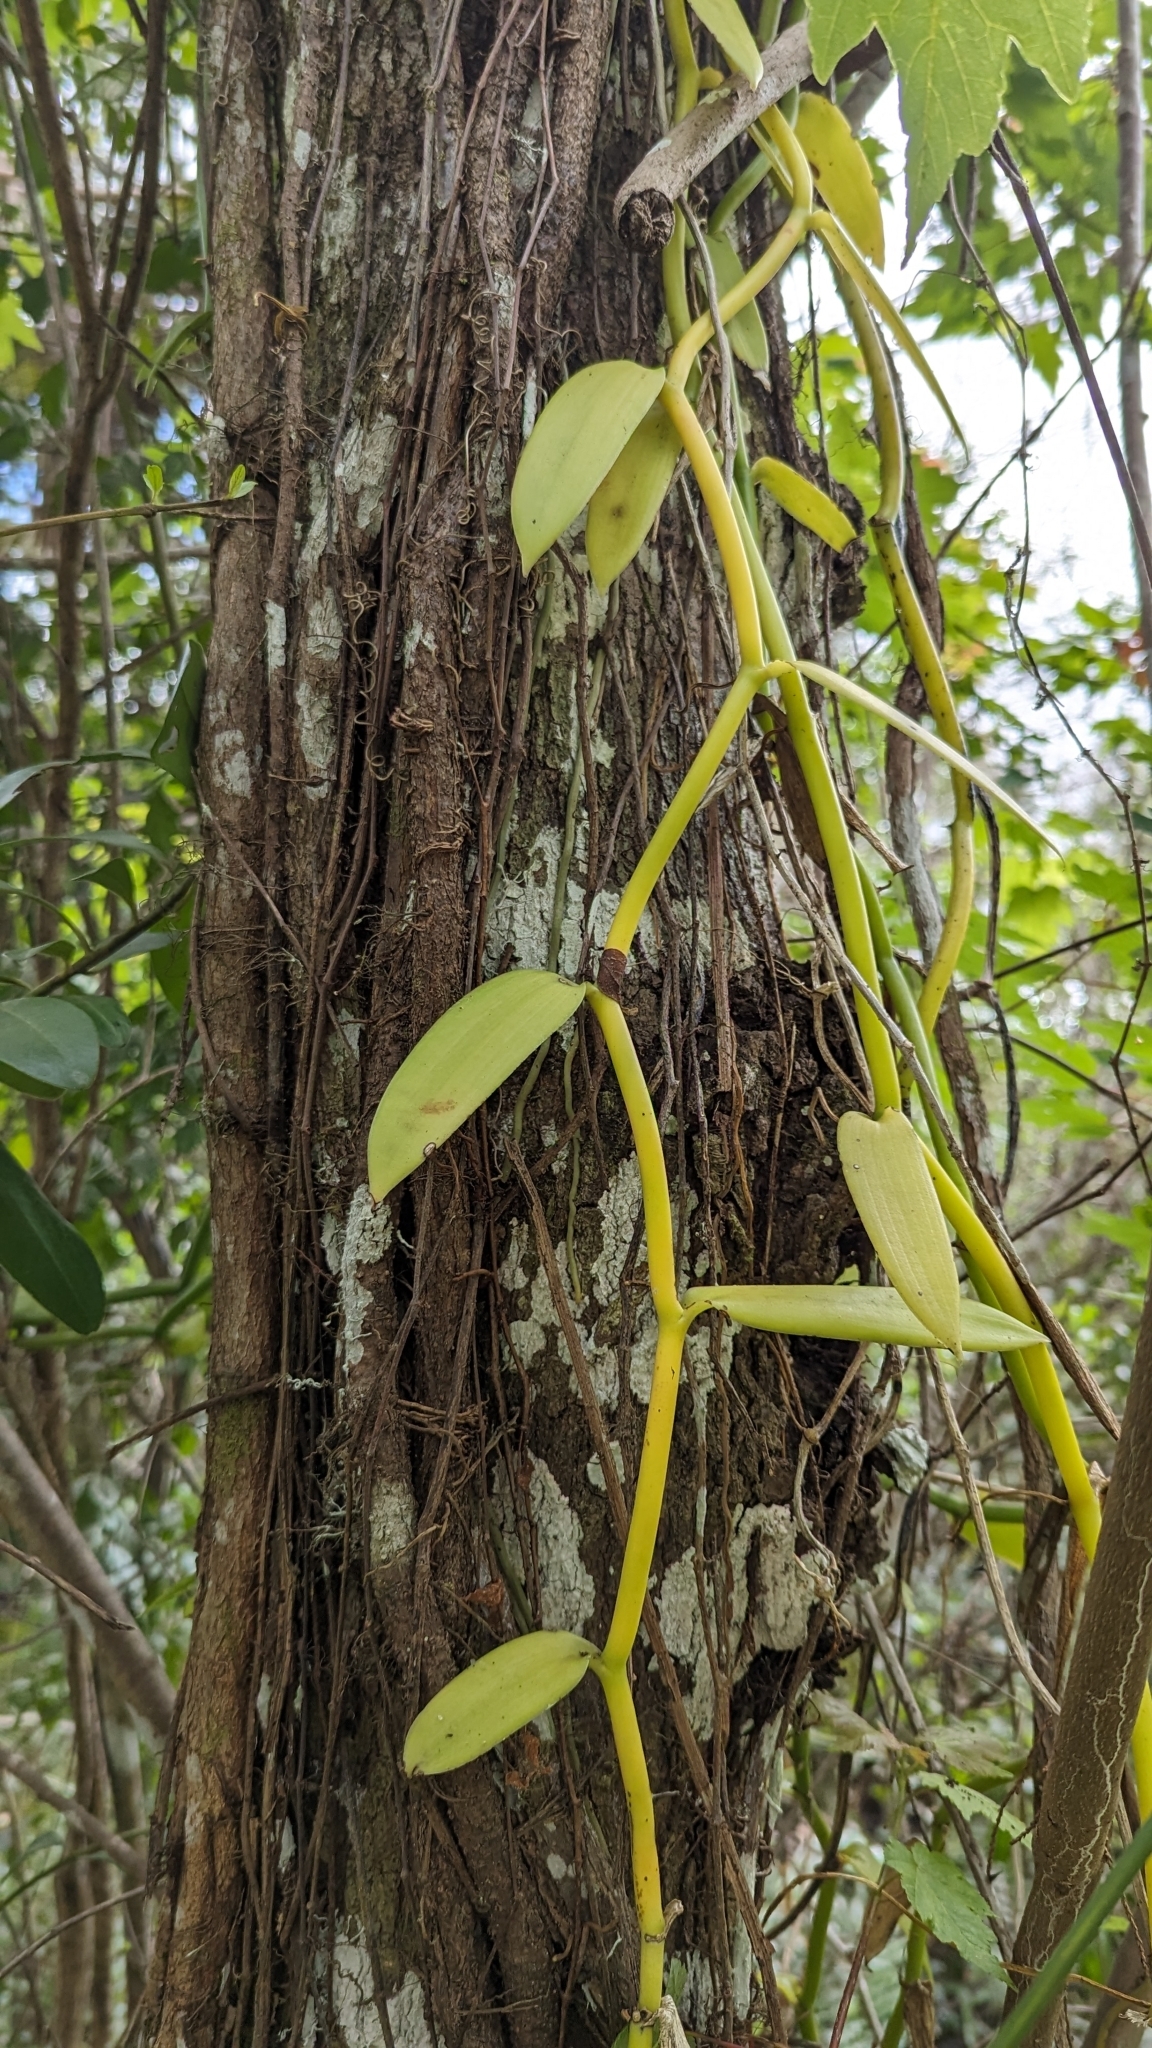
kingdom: Plantae
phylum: Tracheophyta
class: Liliopsida
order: Asparagales
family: Orchidaceae
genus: Vanilla
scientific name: Vanilla phaeantha
